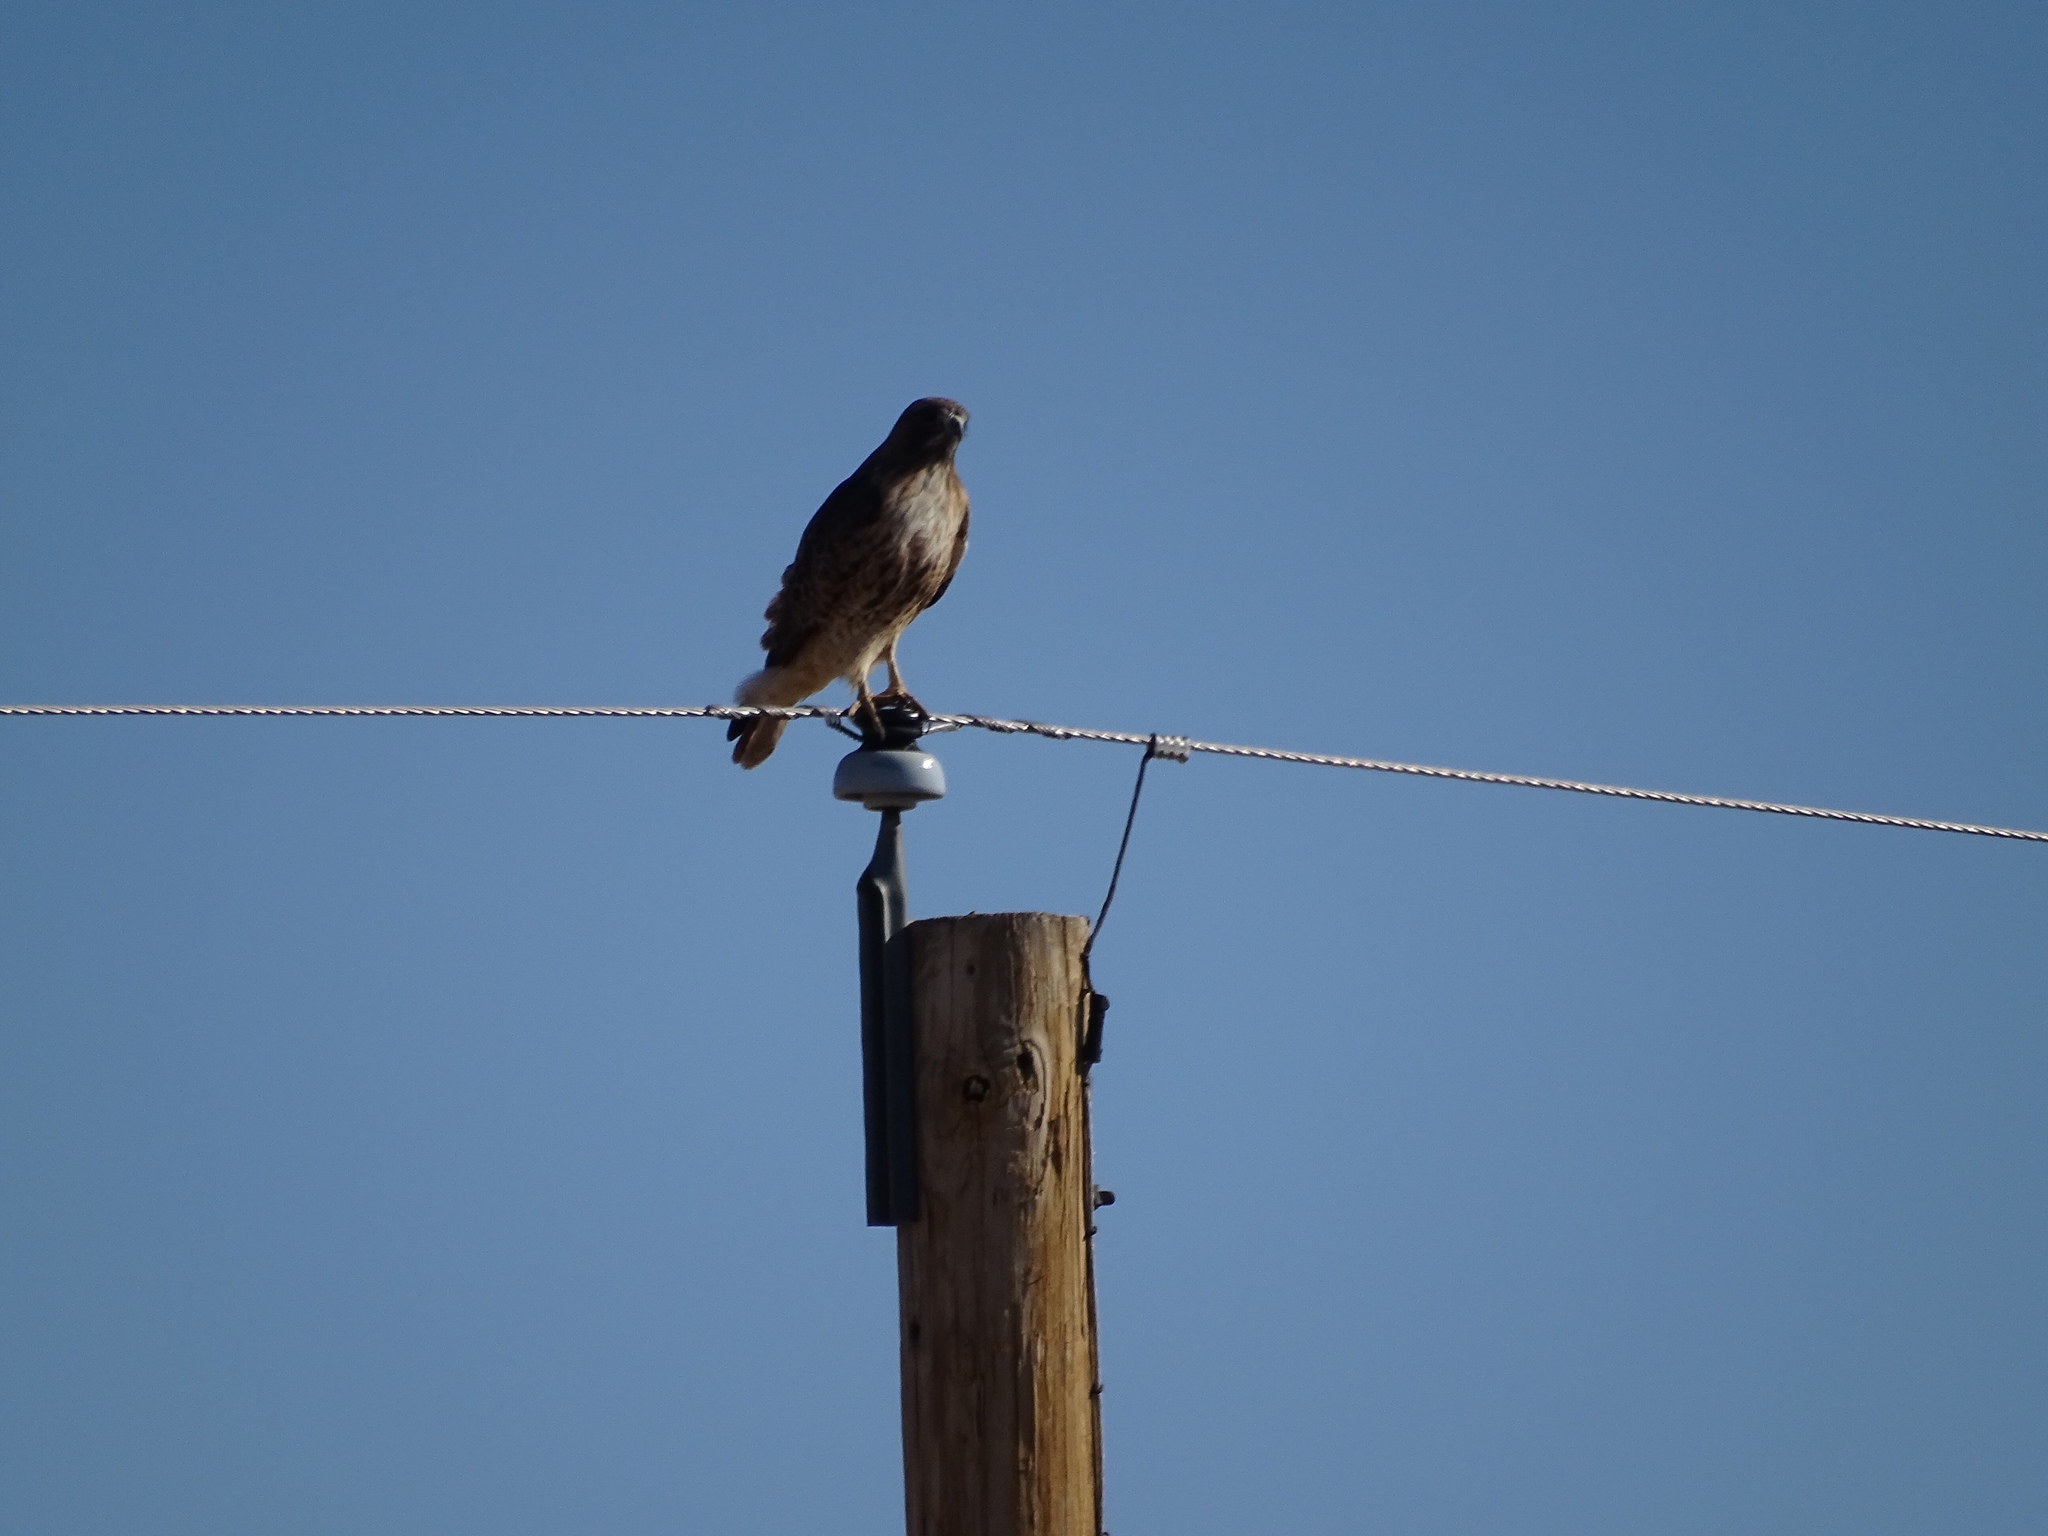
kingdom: Animalia
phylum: Chordata
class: Aves
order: Accipitriformes
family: Accipitridae
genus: Buteo
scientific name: Buteo jamaicensis
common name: Red-tailed hawk
